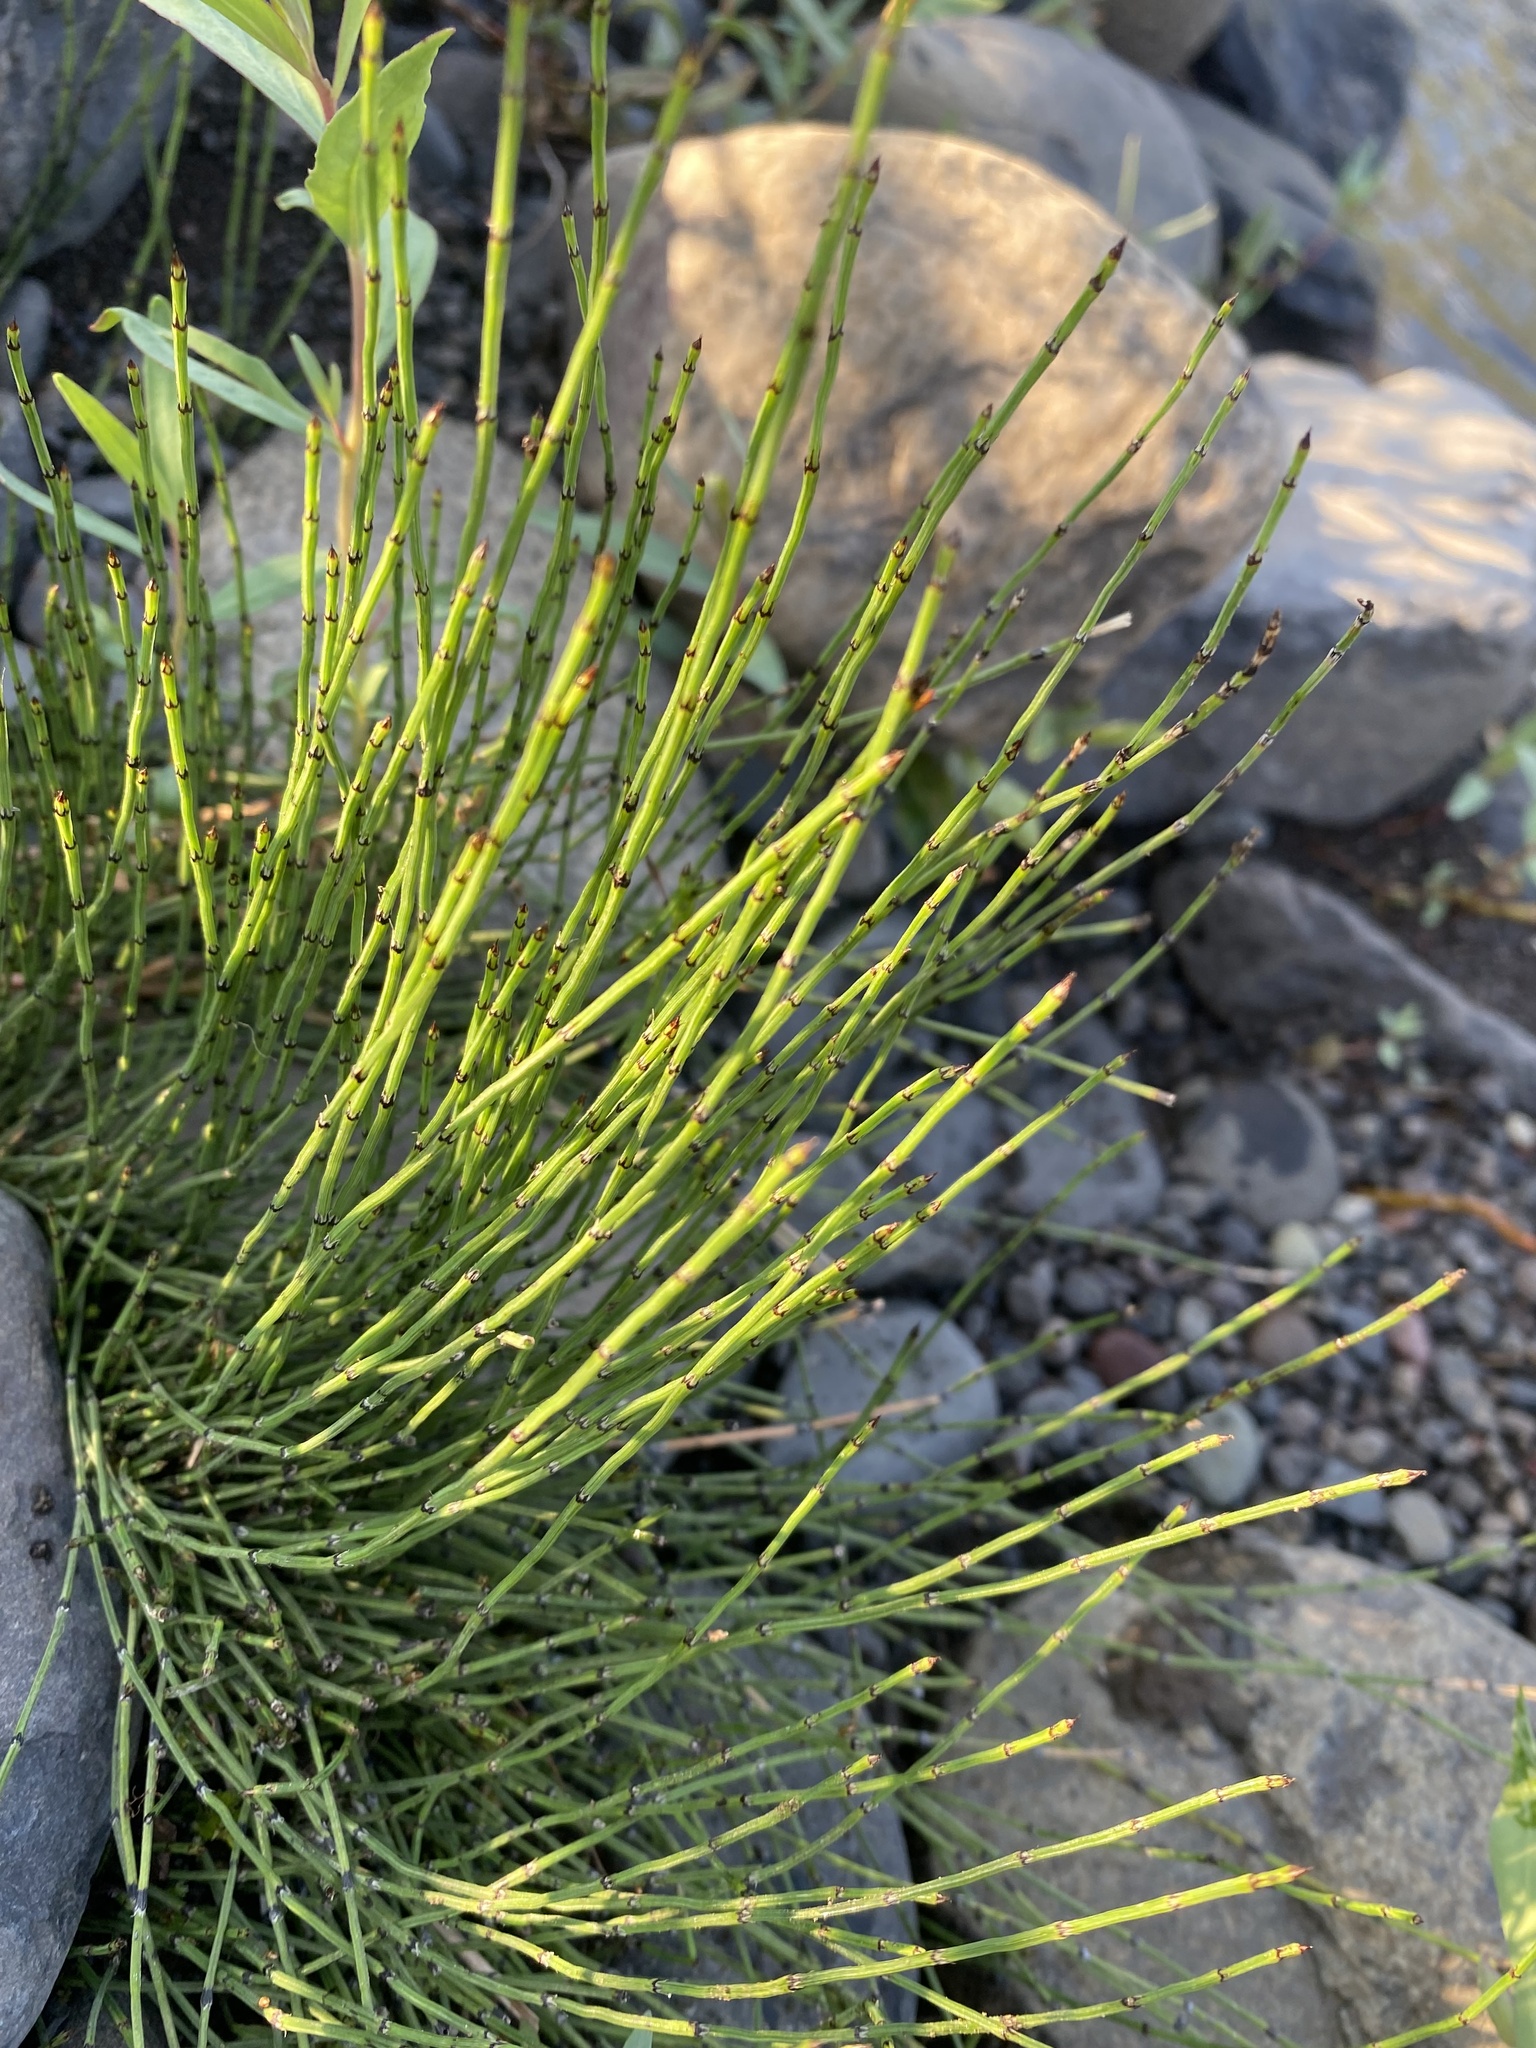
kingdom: Plantae
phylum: Tracheophyta
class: Polypodiopsida
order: Equisetales
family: Equisetaceae
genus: Equisetum
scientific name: Equisetum variegatum
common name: Variegated horsetail
